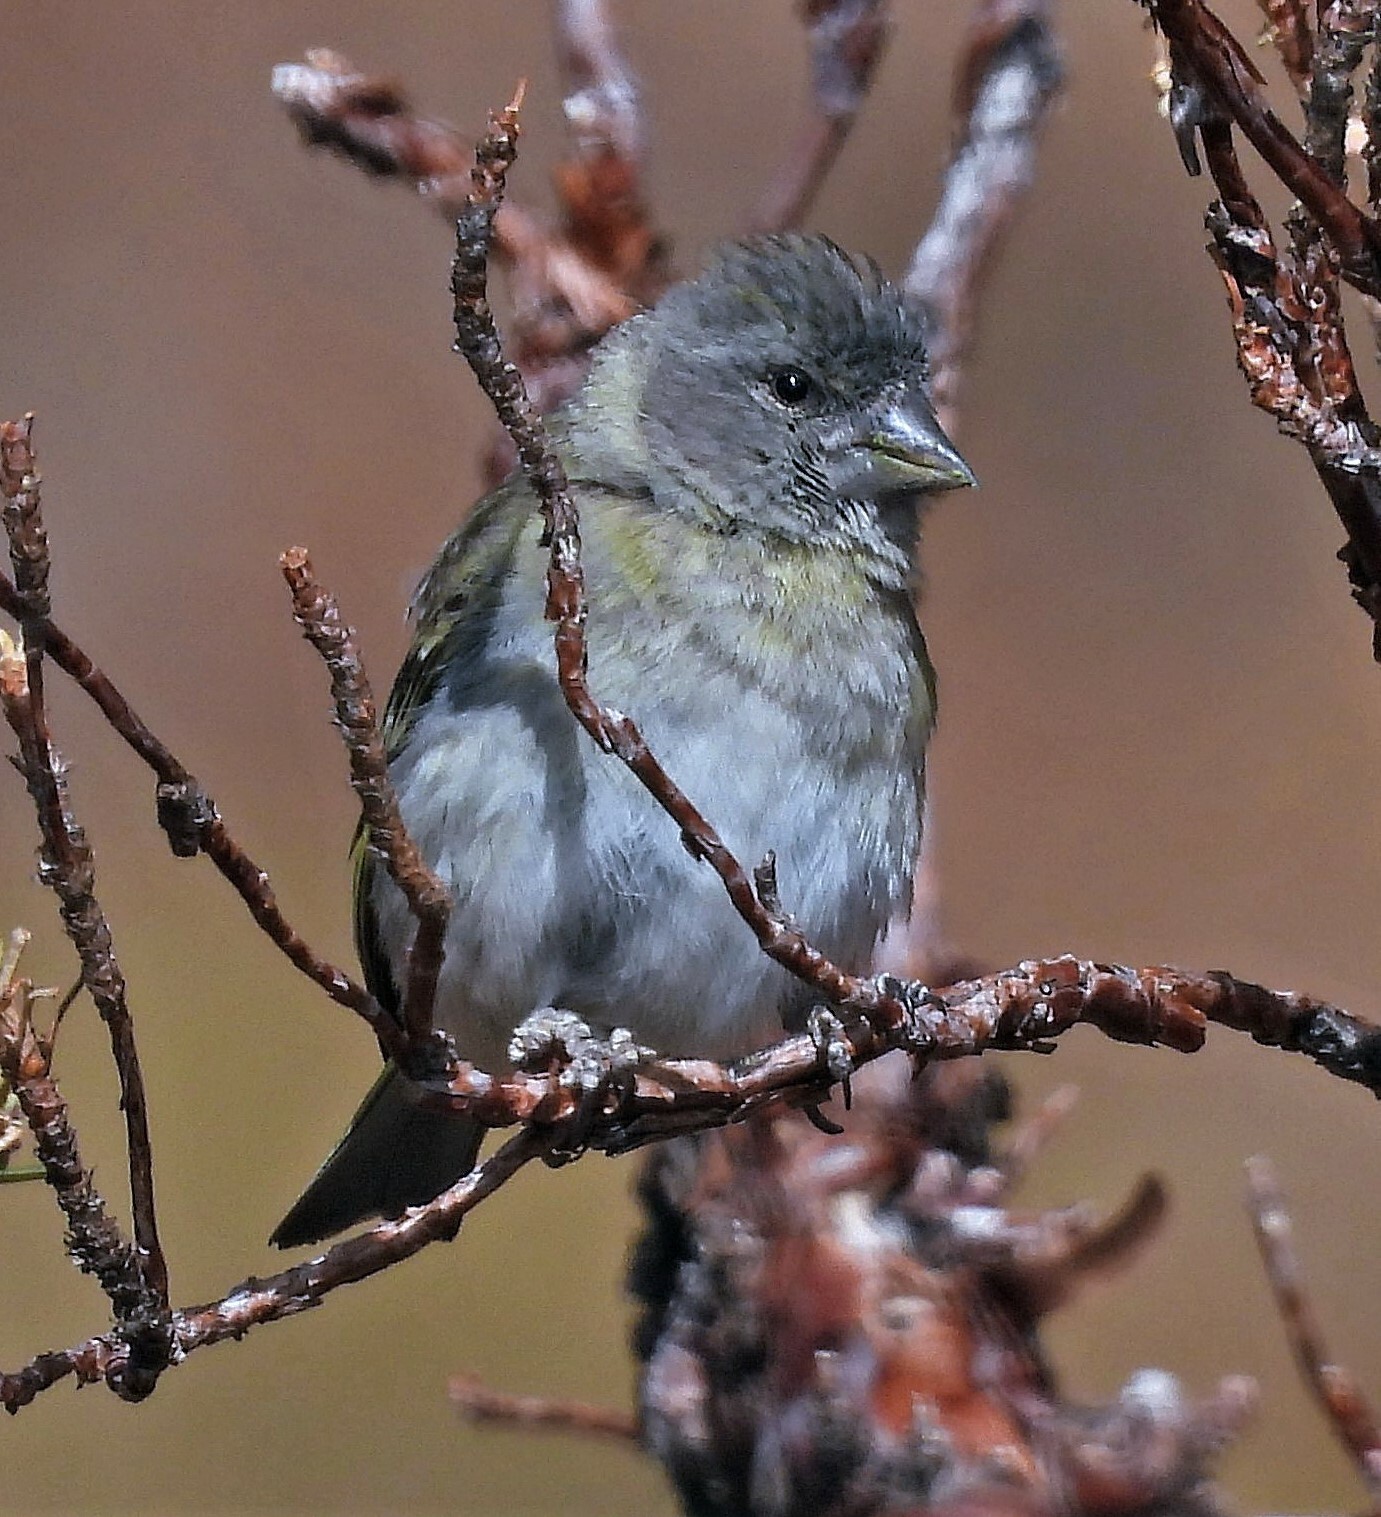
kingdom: Animalia
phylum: Chordata
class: Aves
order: Passeriformes
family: Fringillidae
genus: Spinus
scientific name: Spinus crassirostris
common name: Thick-billed siskin
